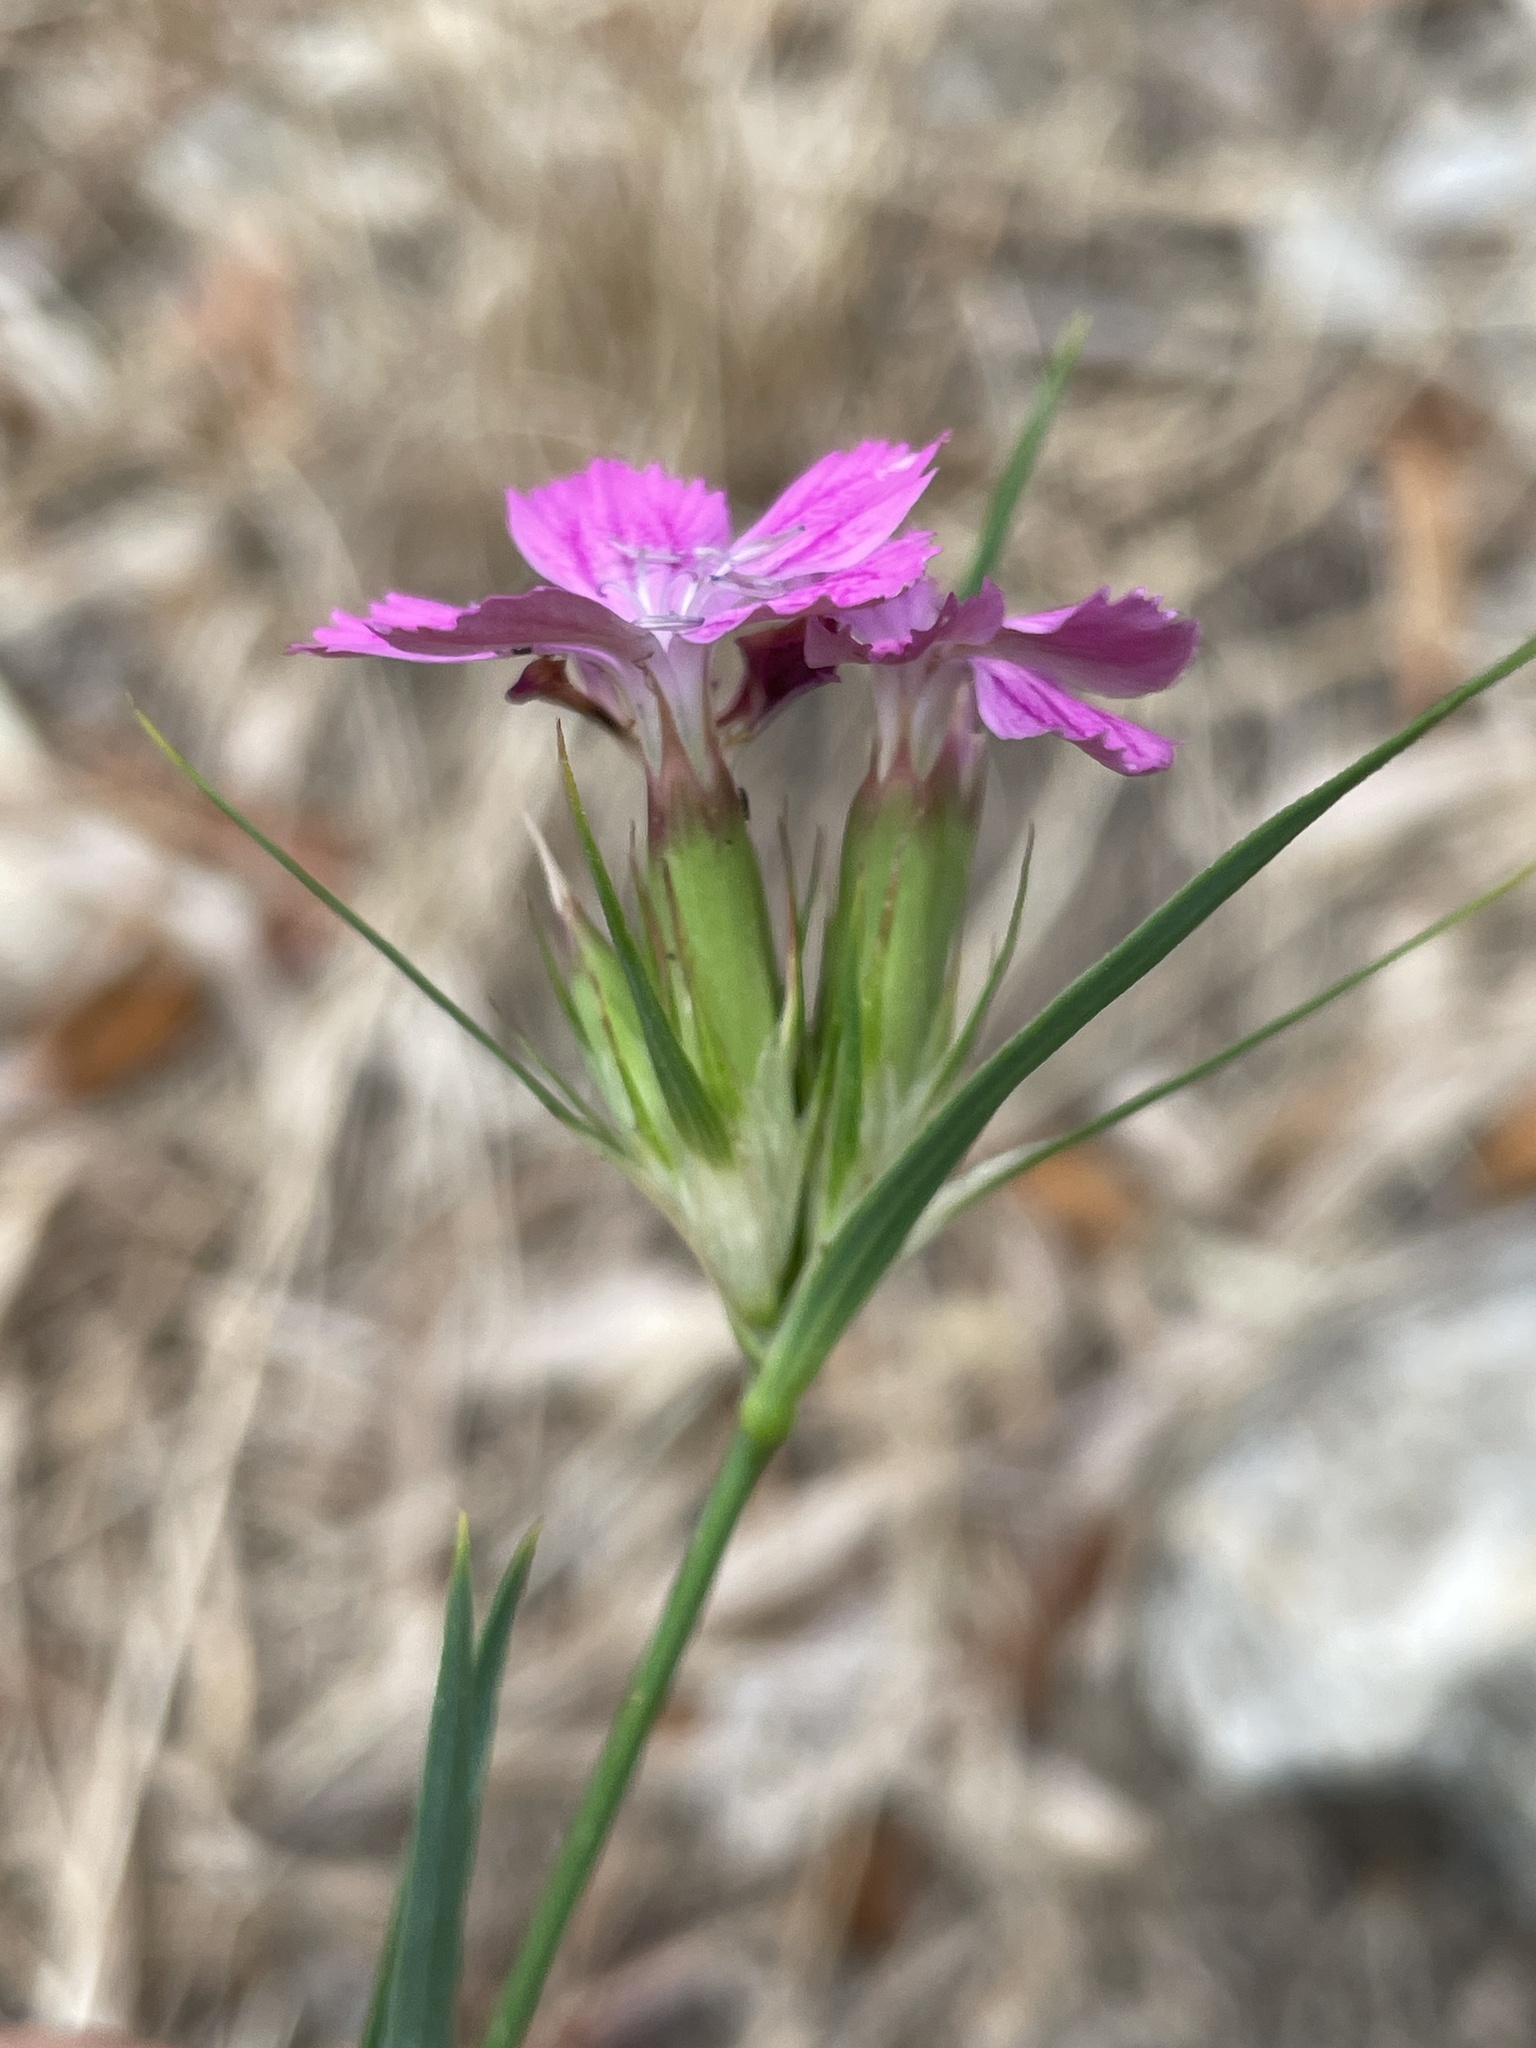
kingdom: Plantae
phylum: Tracheophyta
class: Magnoliopsida
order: Caryophyllales
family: Caryophyllaceae
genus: Dianthus
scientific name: Dianthus balbisii
